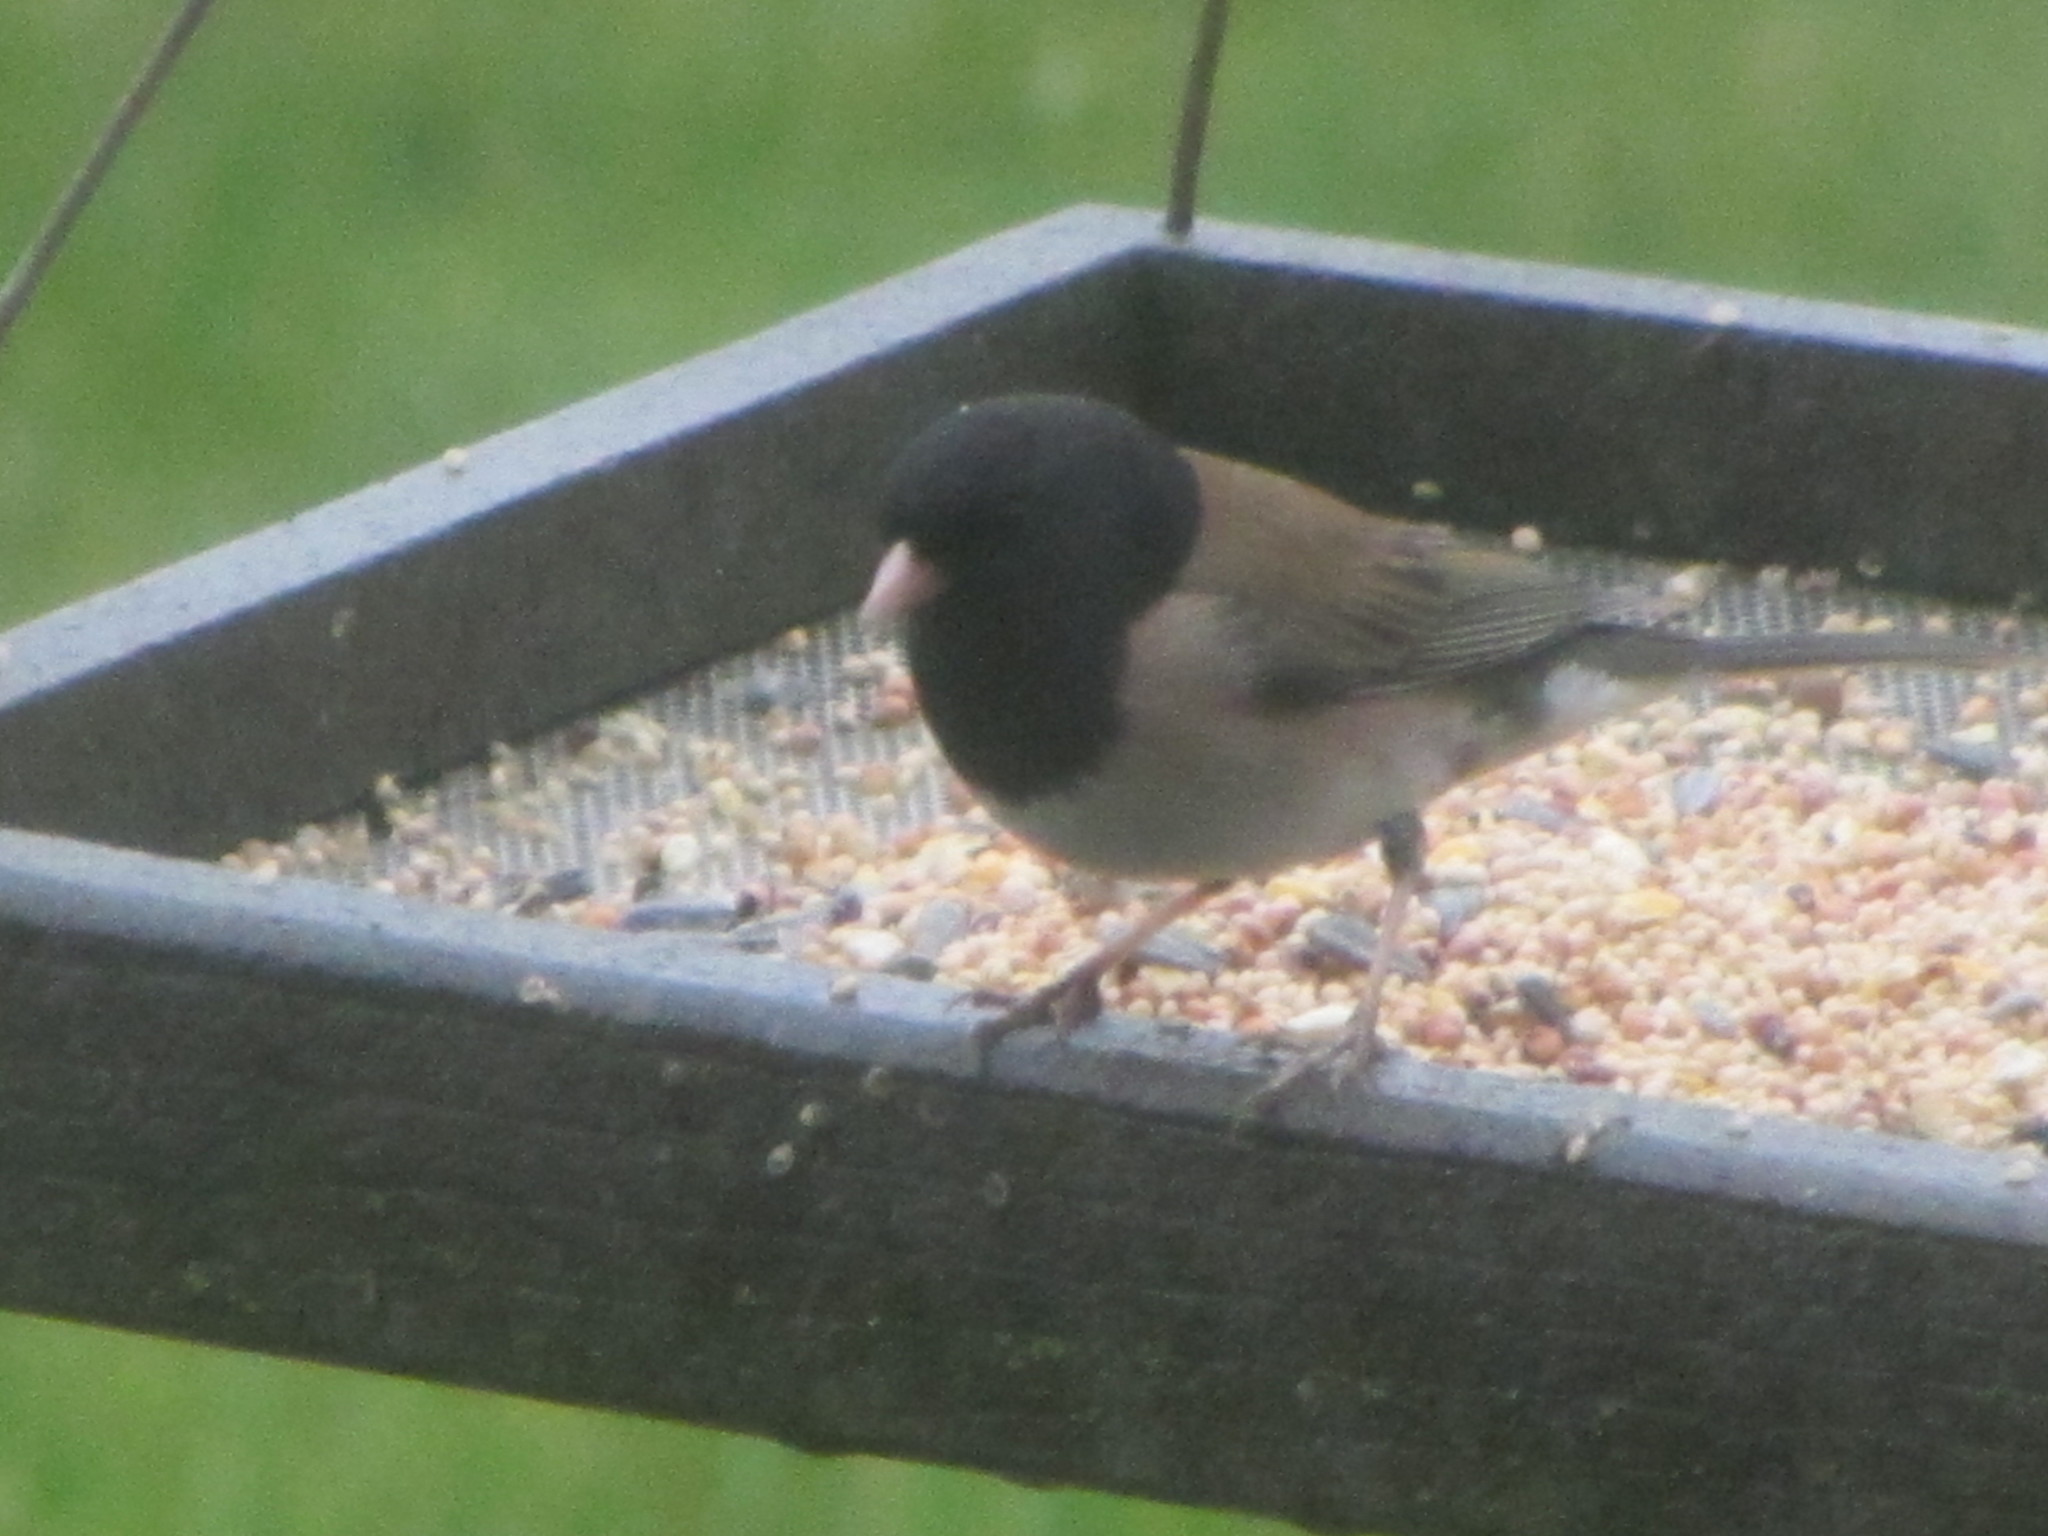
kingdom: Animalia
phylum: Chordata
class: Aves
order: Passeriformes
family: Passerellidae
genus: Junco
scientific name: Junco hyemalis
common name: Dark-eyed junco
